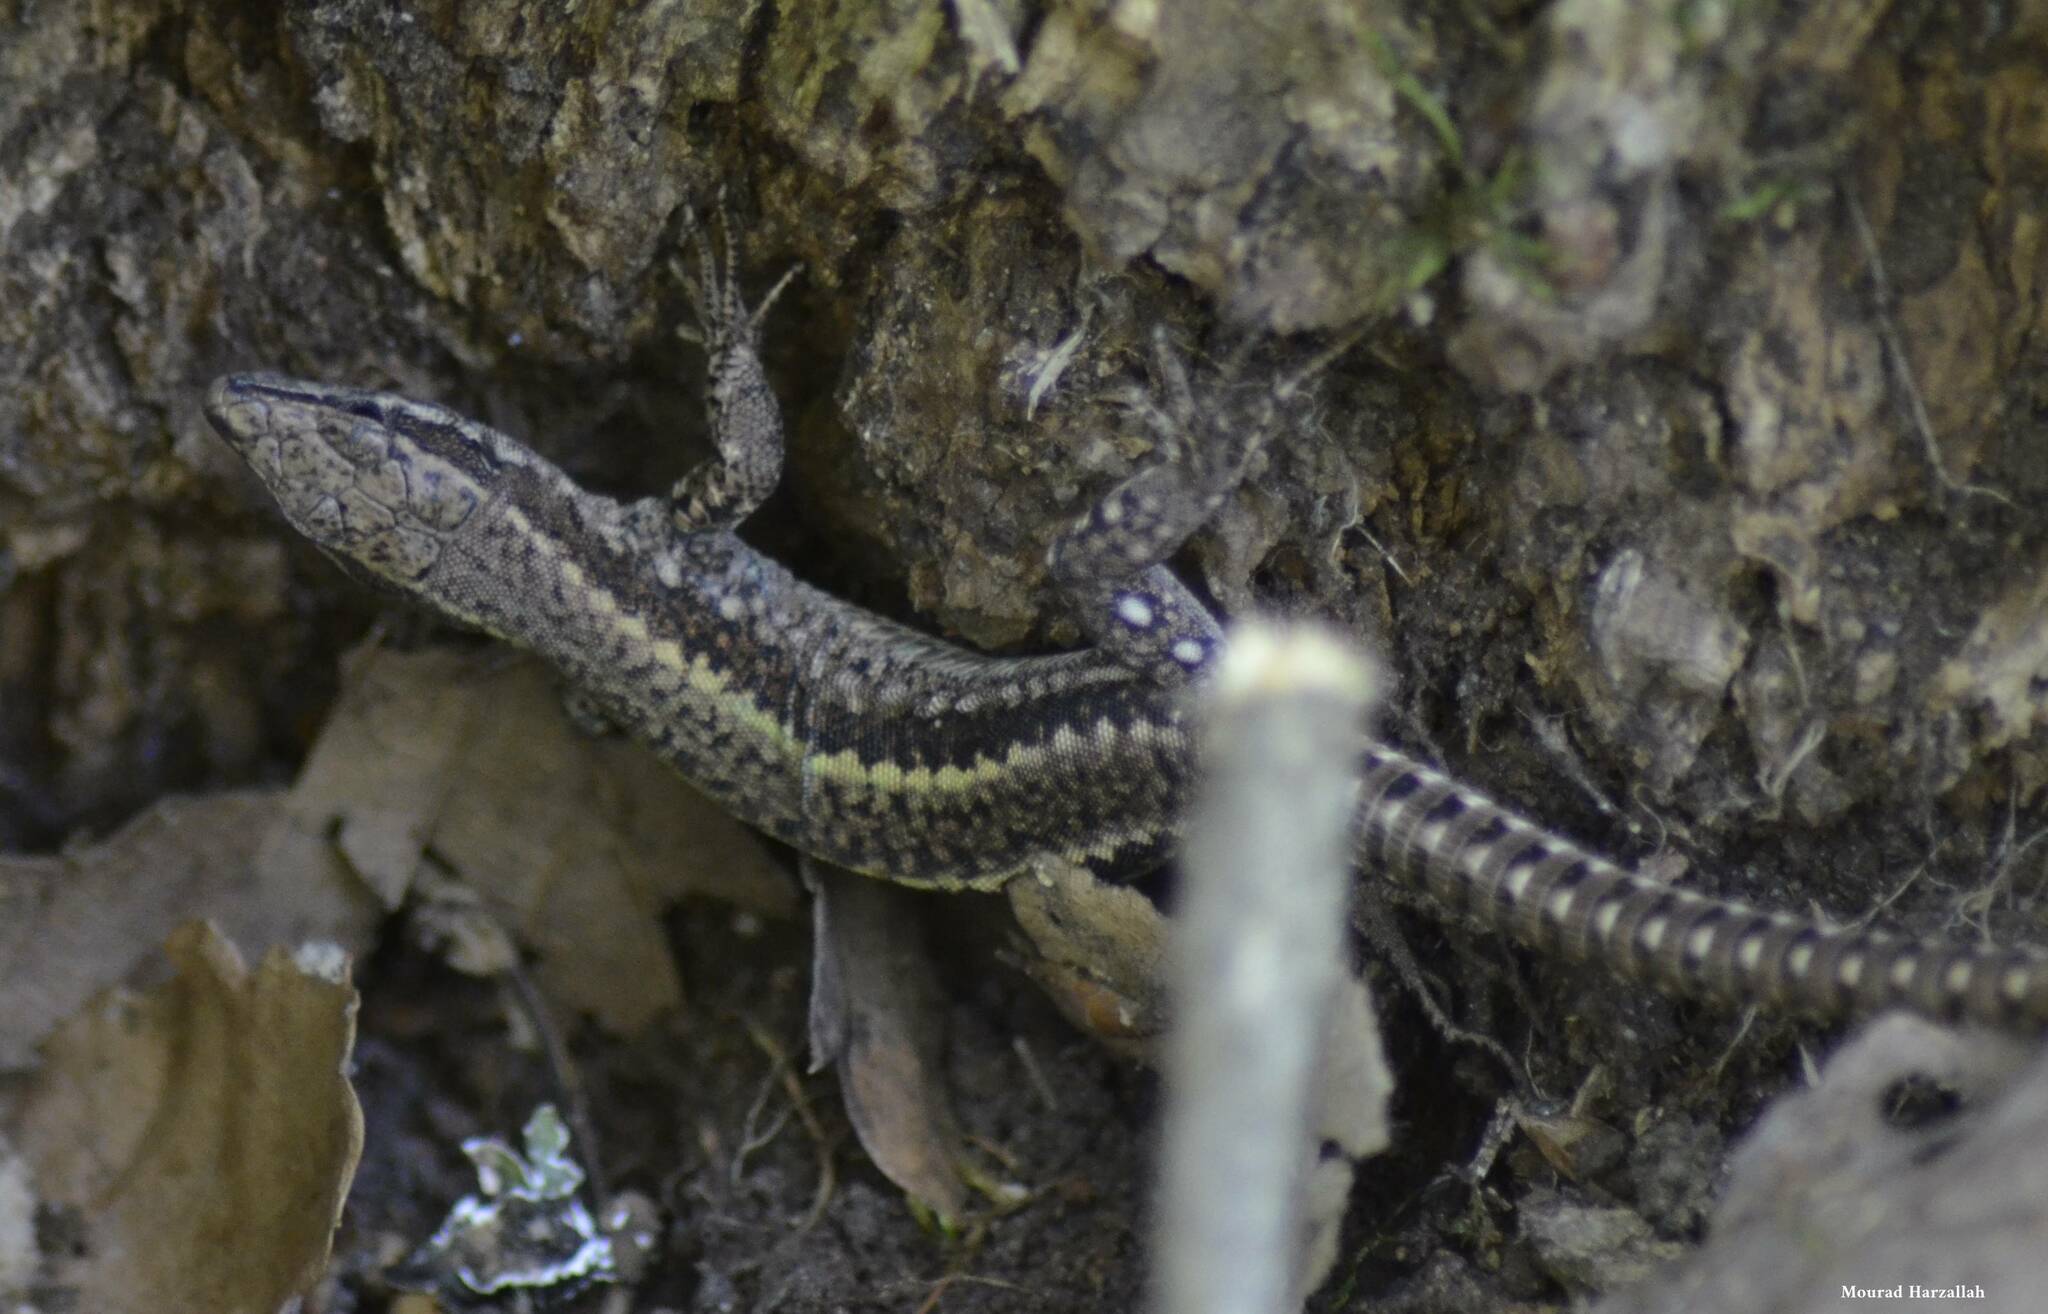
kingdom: Animalia
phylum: Chordata
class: Squamata
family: Lacertidae
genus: Podarcis
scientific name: Podarcis vaucheri
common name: Vaucher's wall lizard
